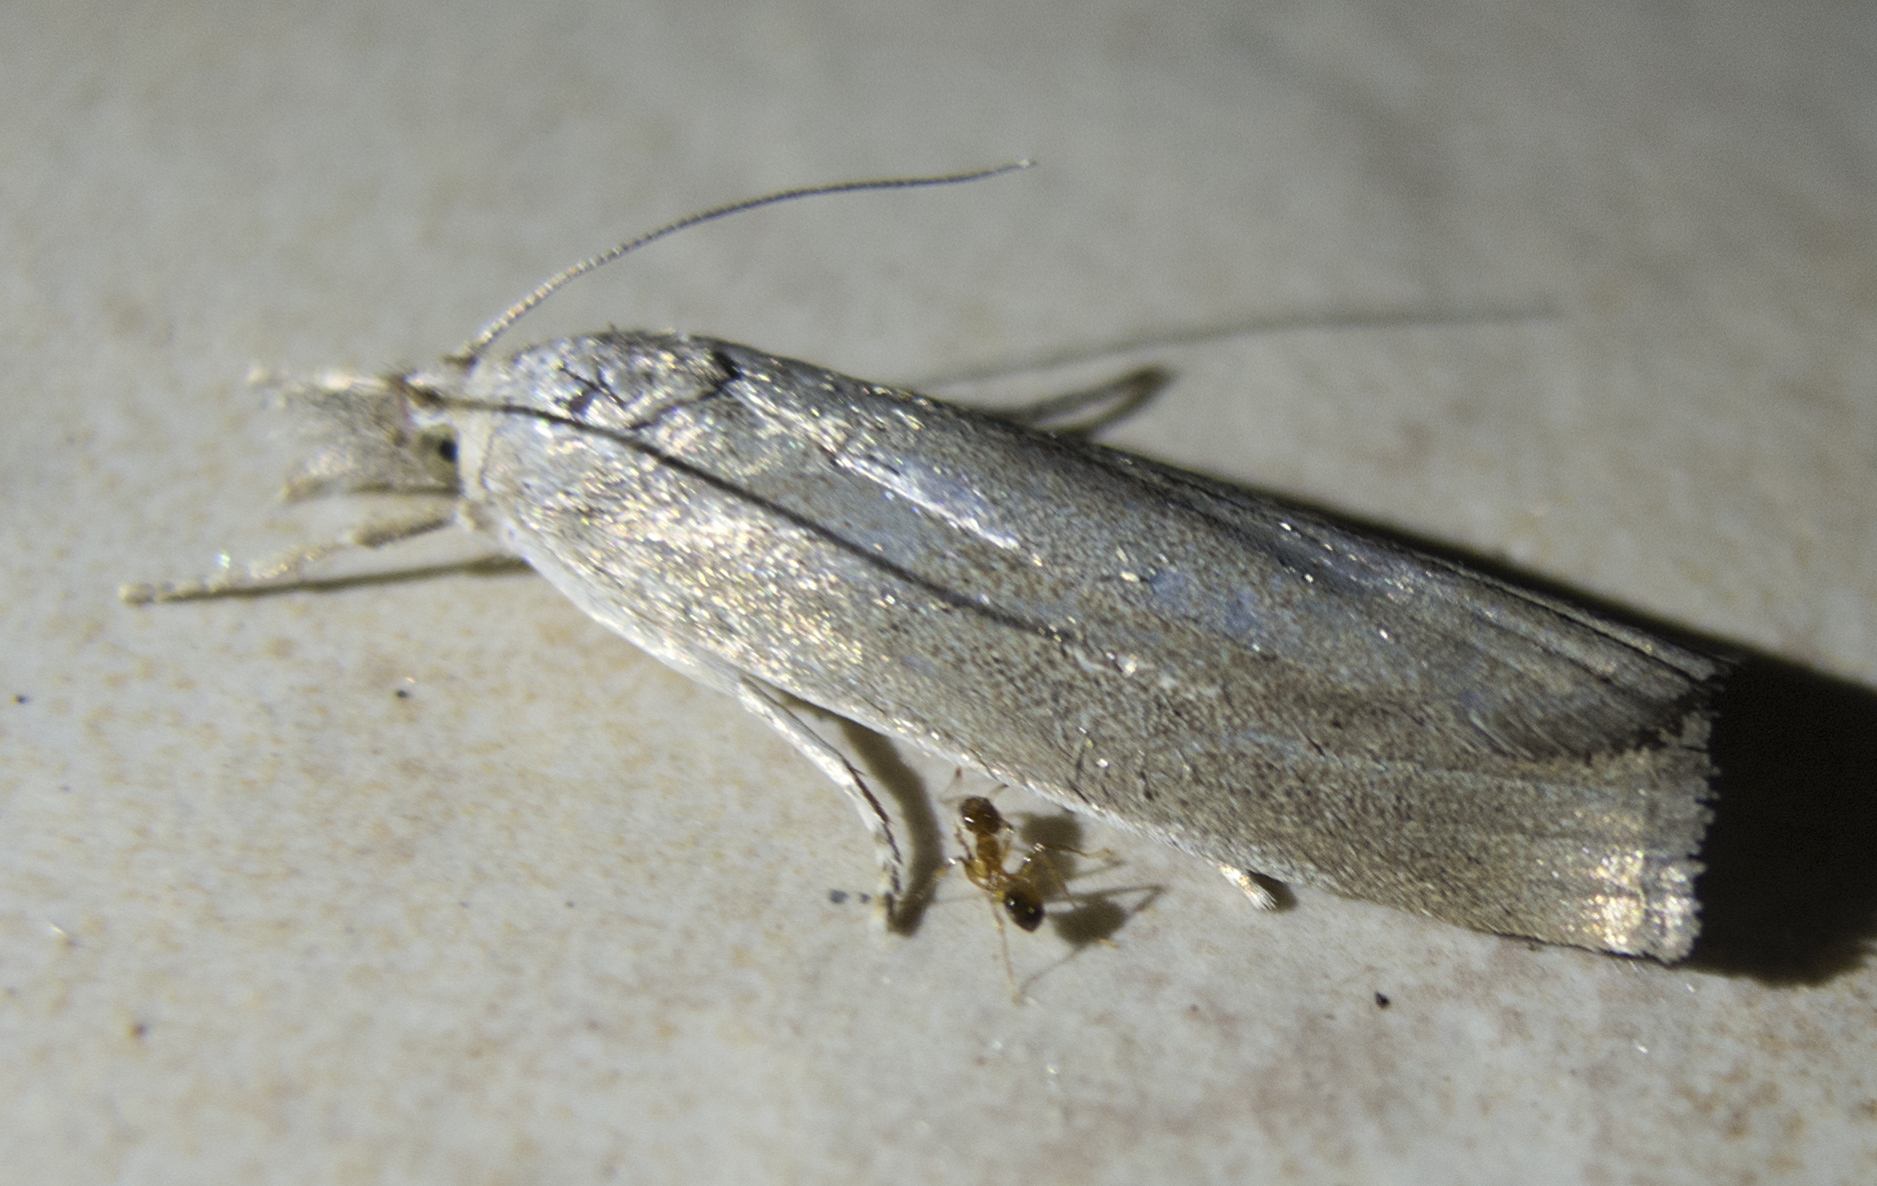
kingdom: Animalia
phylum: Arthropoda
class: Insecta
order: Lepidoptera
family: Crambidae
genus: Calamotropha
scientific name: Calamotropha paludella
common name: Bulrush veneer
